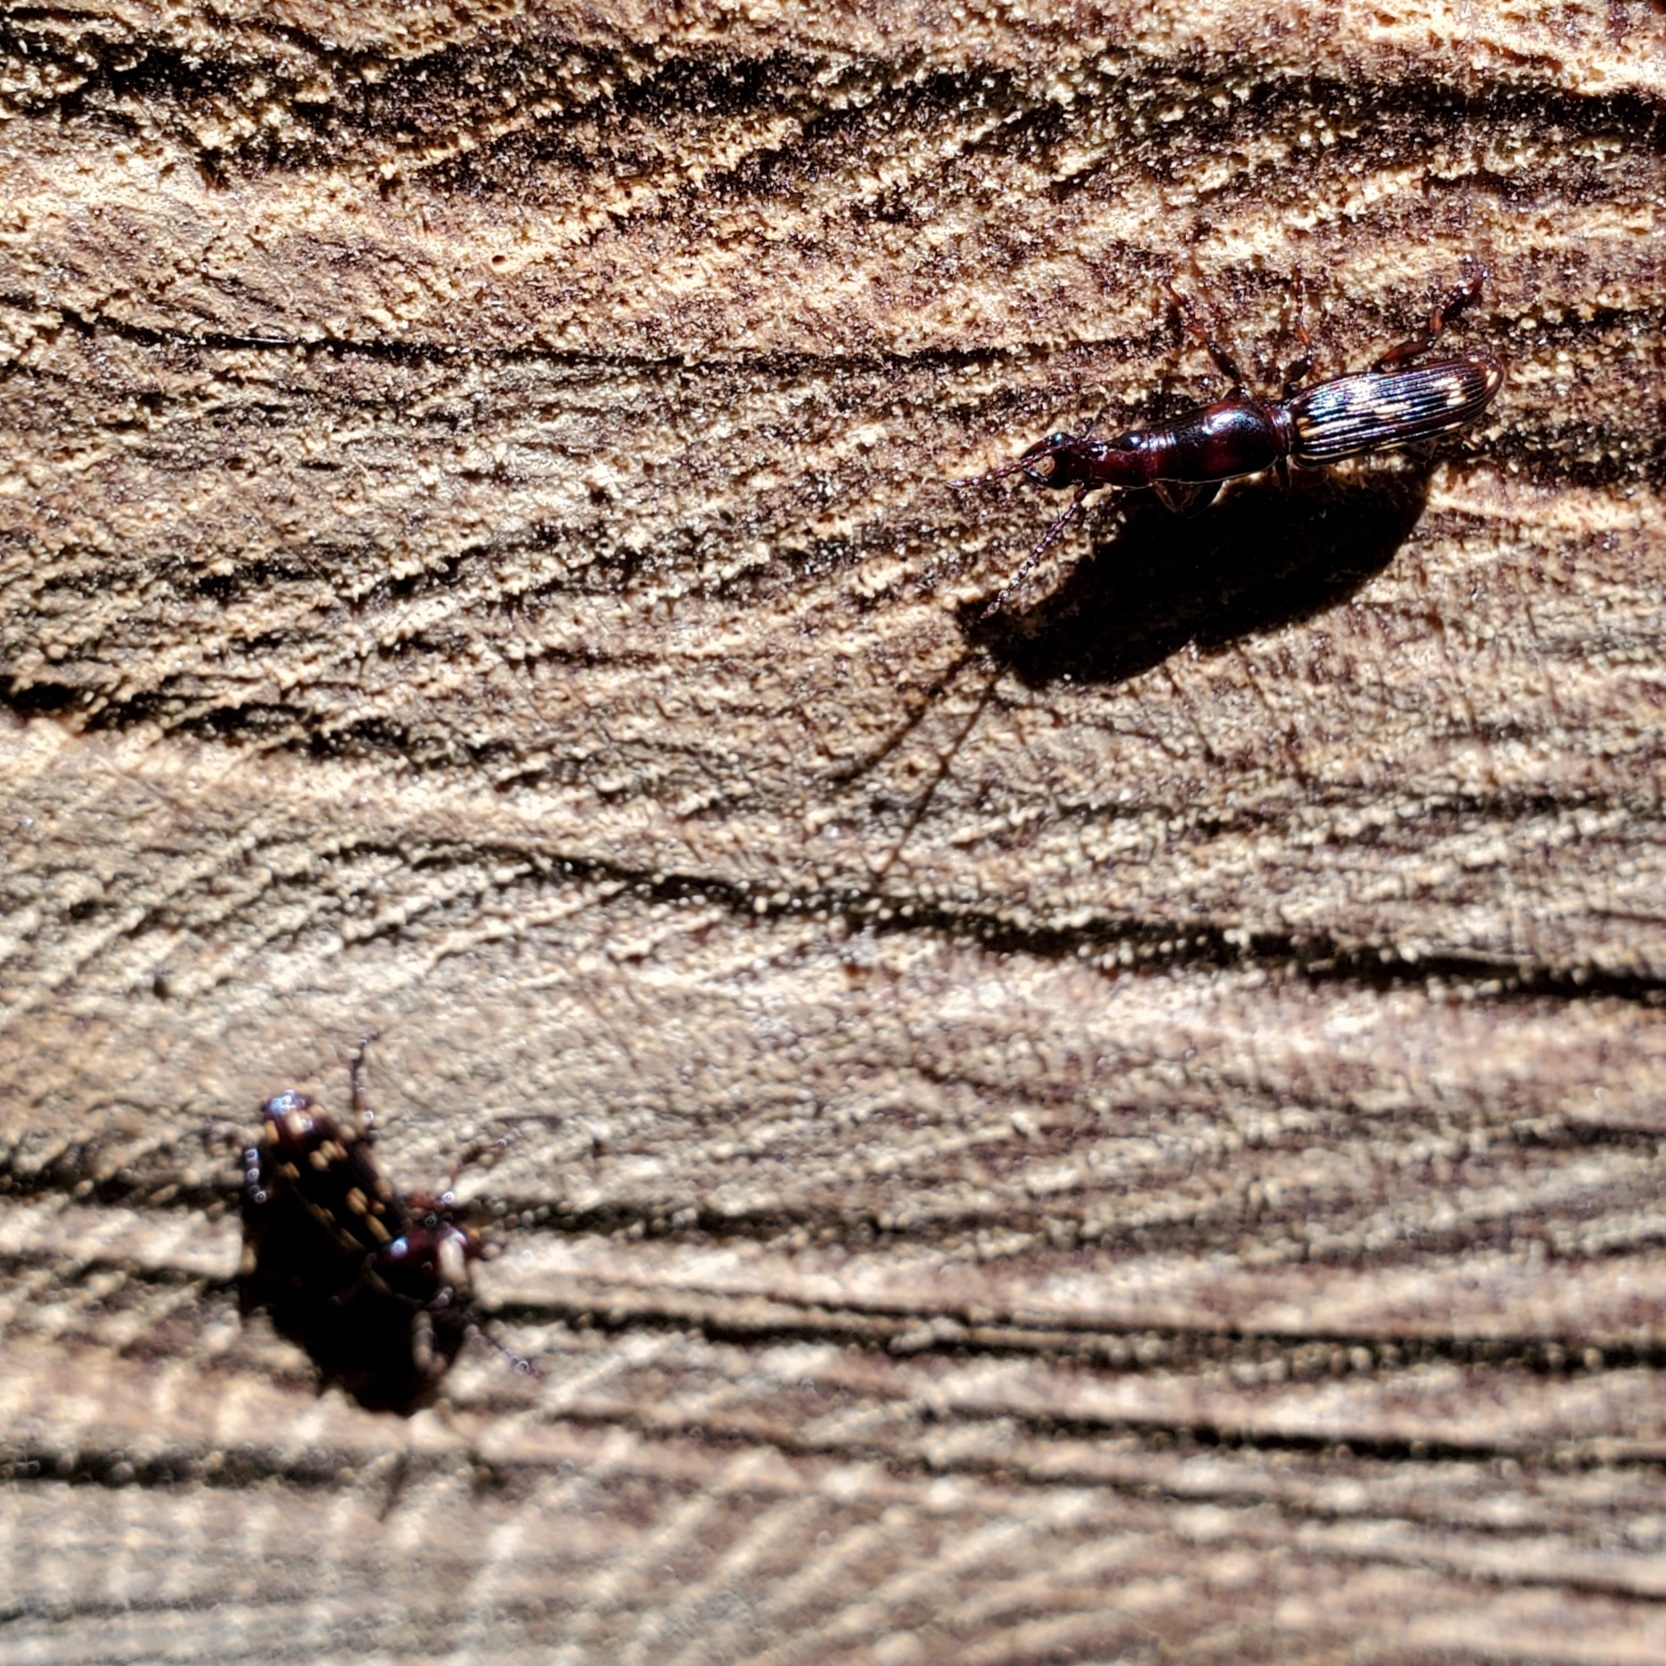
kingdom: Animalia
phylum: Arthropoda
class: Insecta
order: Coleoptera
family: Brentidae
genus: Arrenodes
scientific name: Arrenodes minutus
